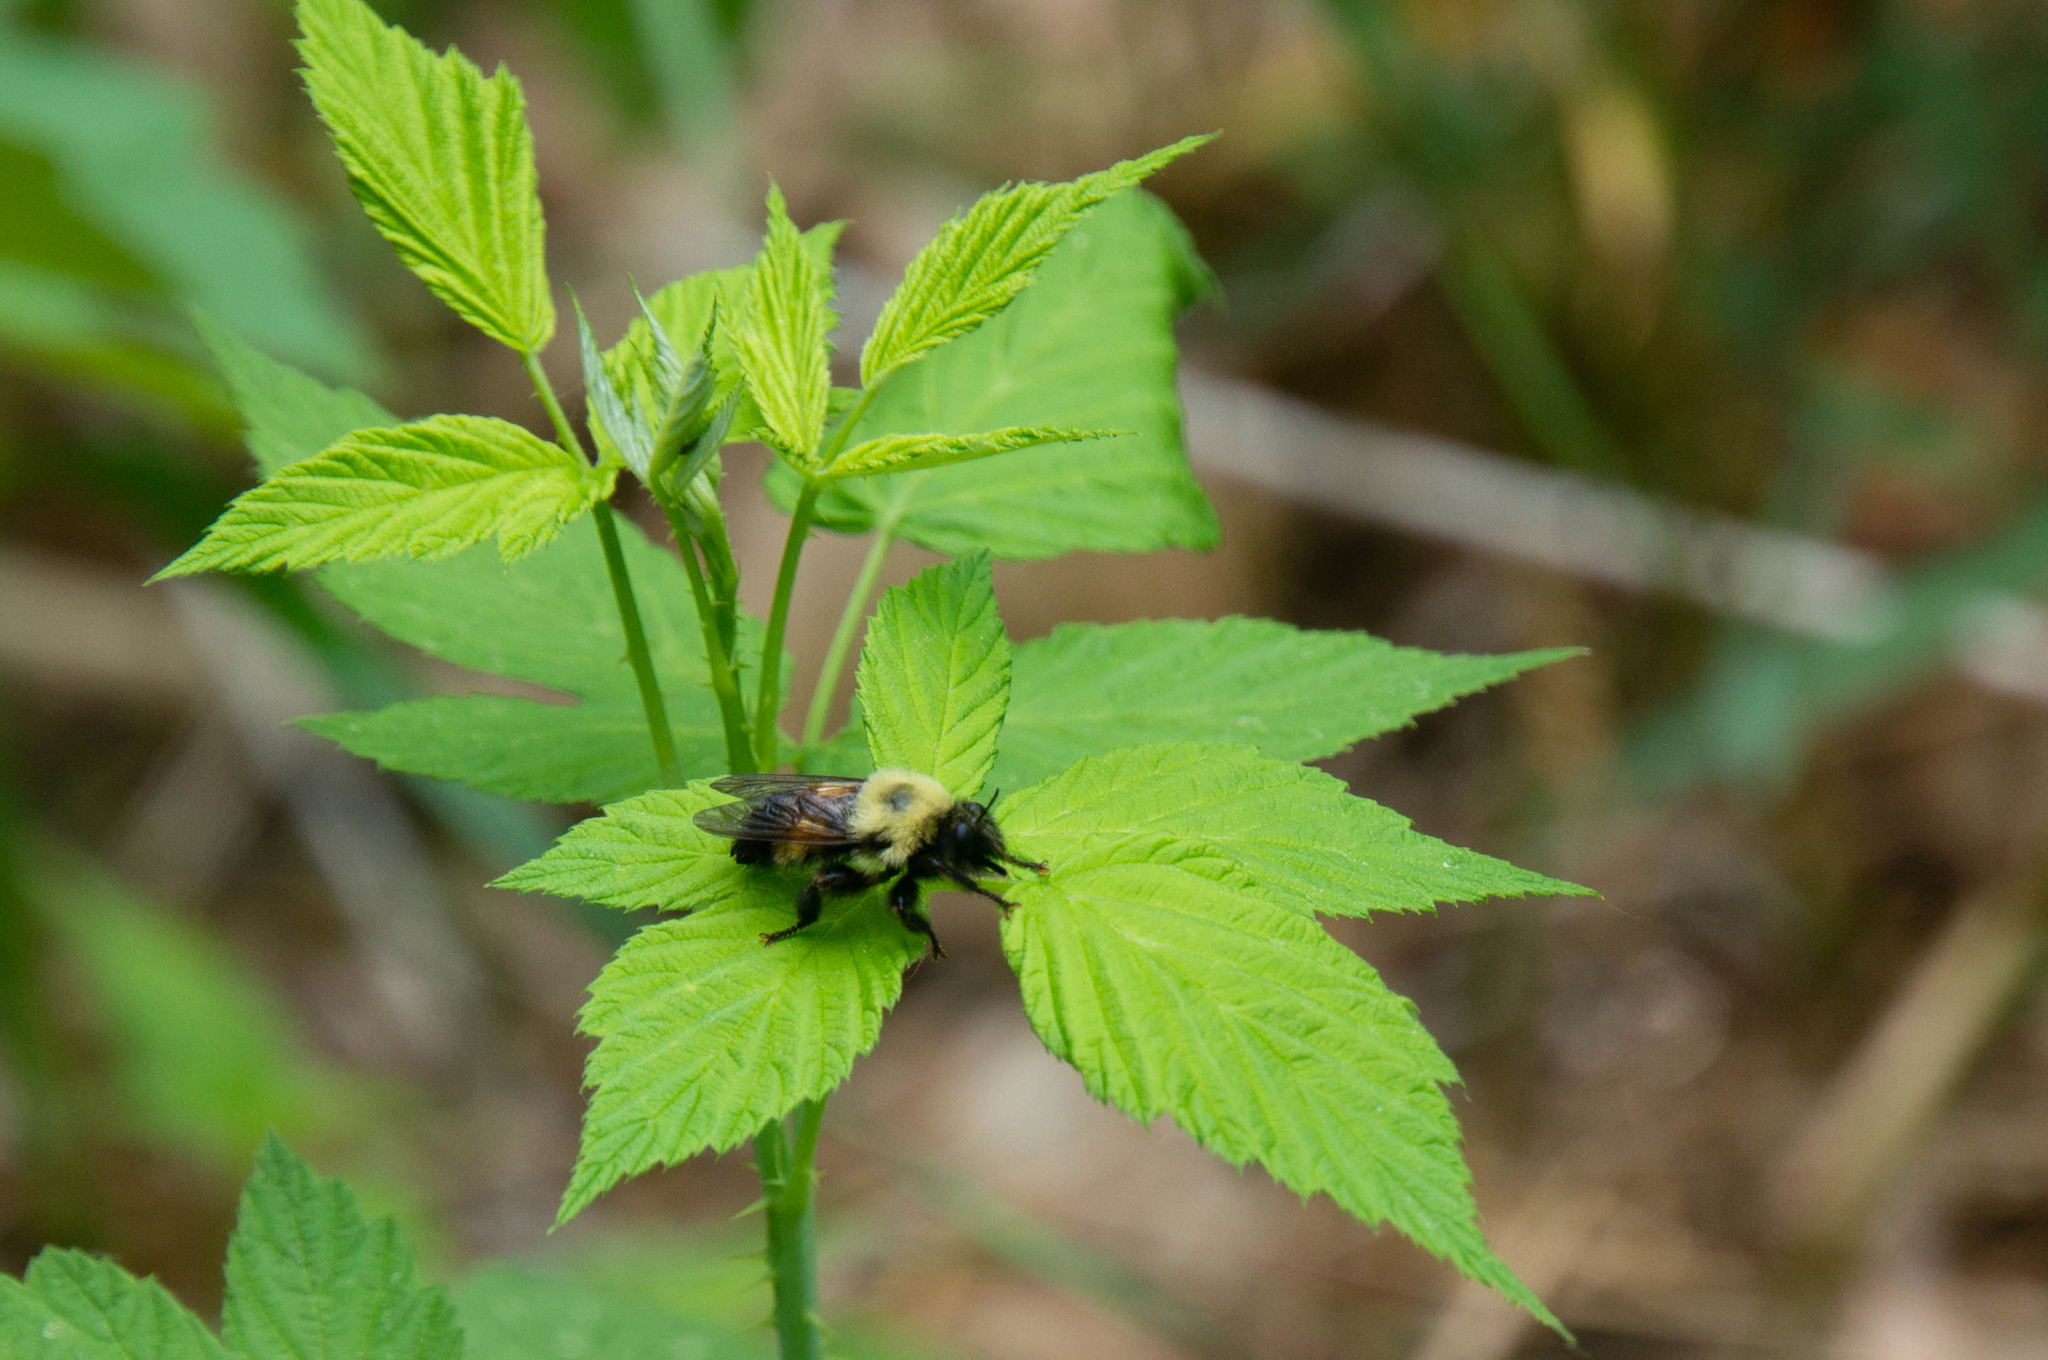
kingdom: Animalia
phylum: Arthropoda
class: Insecta
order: Diptera
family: Asilidae
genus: Laphria
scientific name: Laphria thoracica
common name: Bumble bee mimic robber fly
